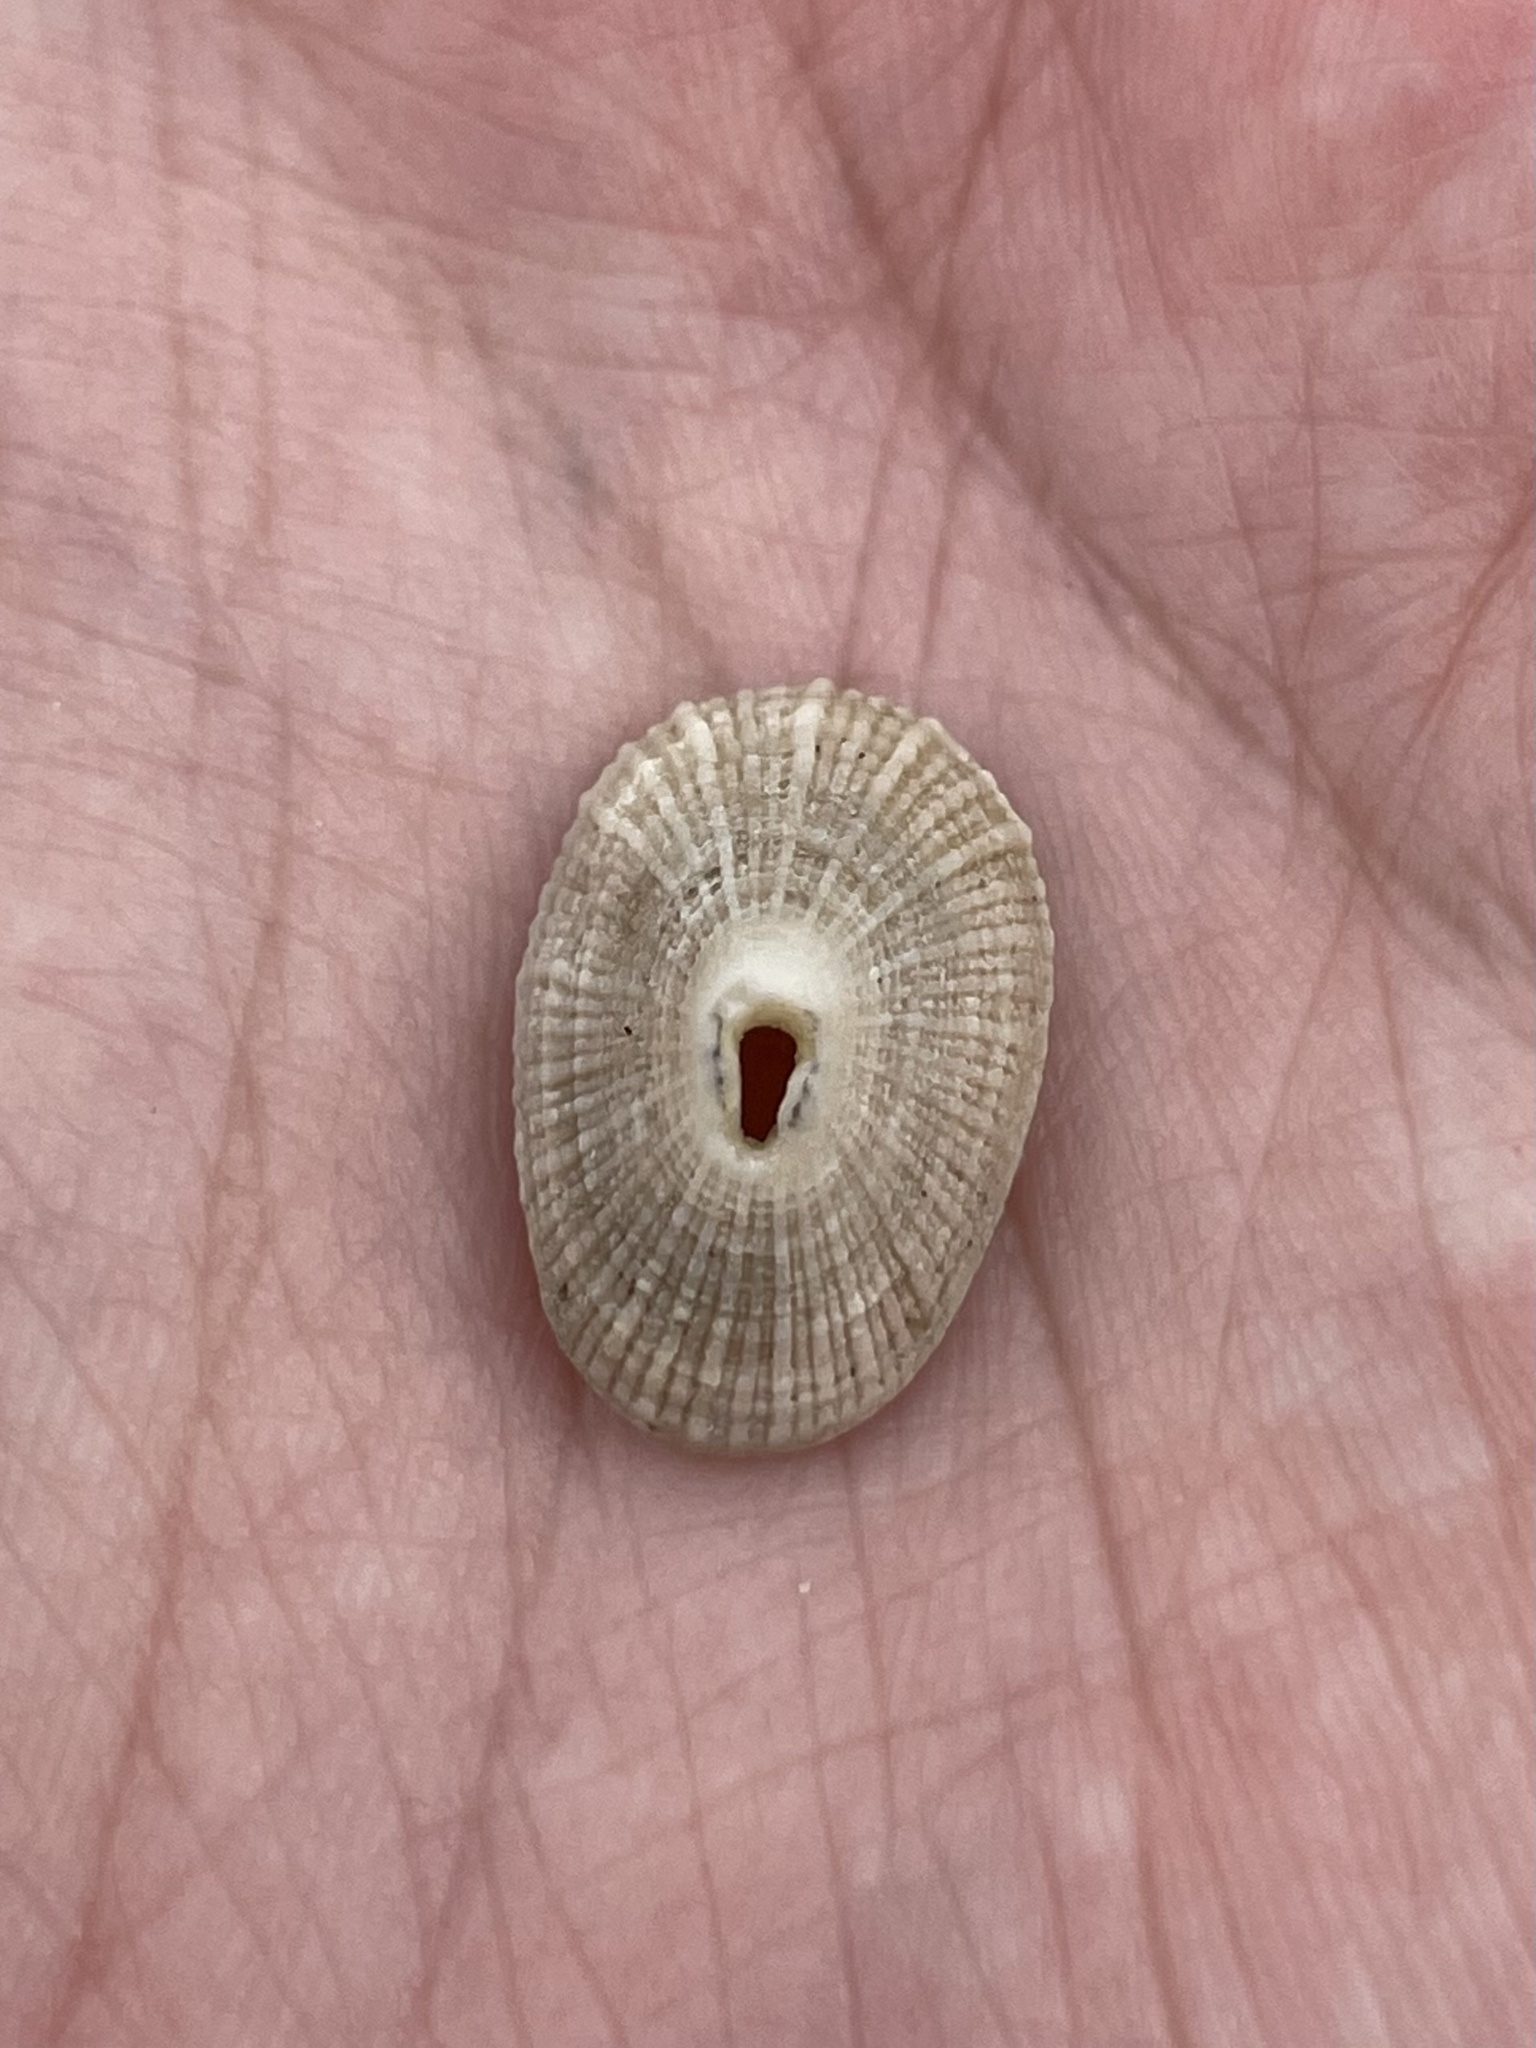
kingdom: Animalia
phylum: Mollusca
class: Gastropoda
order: Lepetellida
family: Fissurellidae
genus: Diodora
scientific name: Diodora cayenensis
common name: Cayenne keyhole limpet
